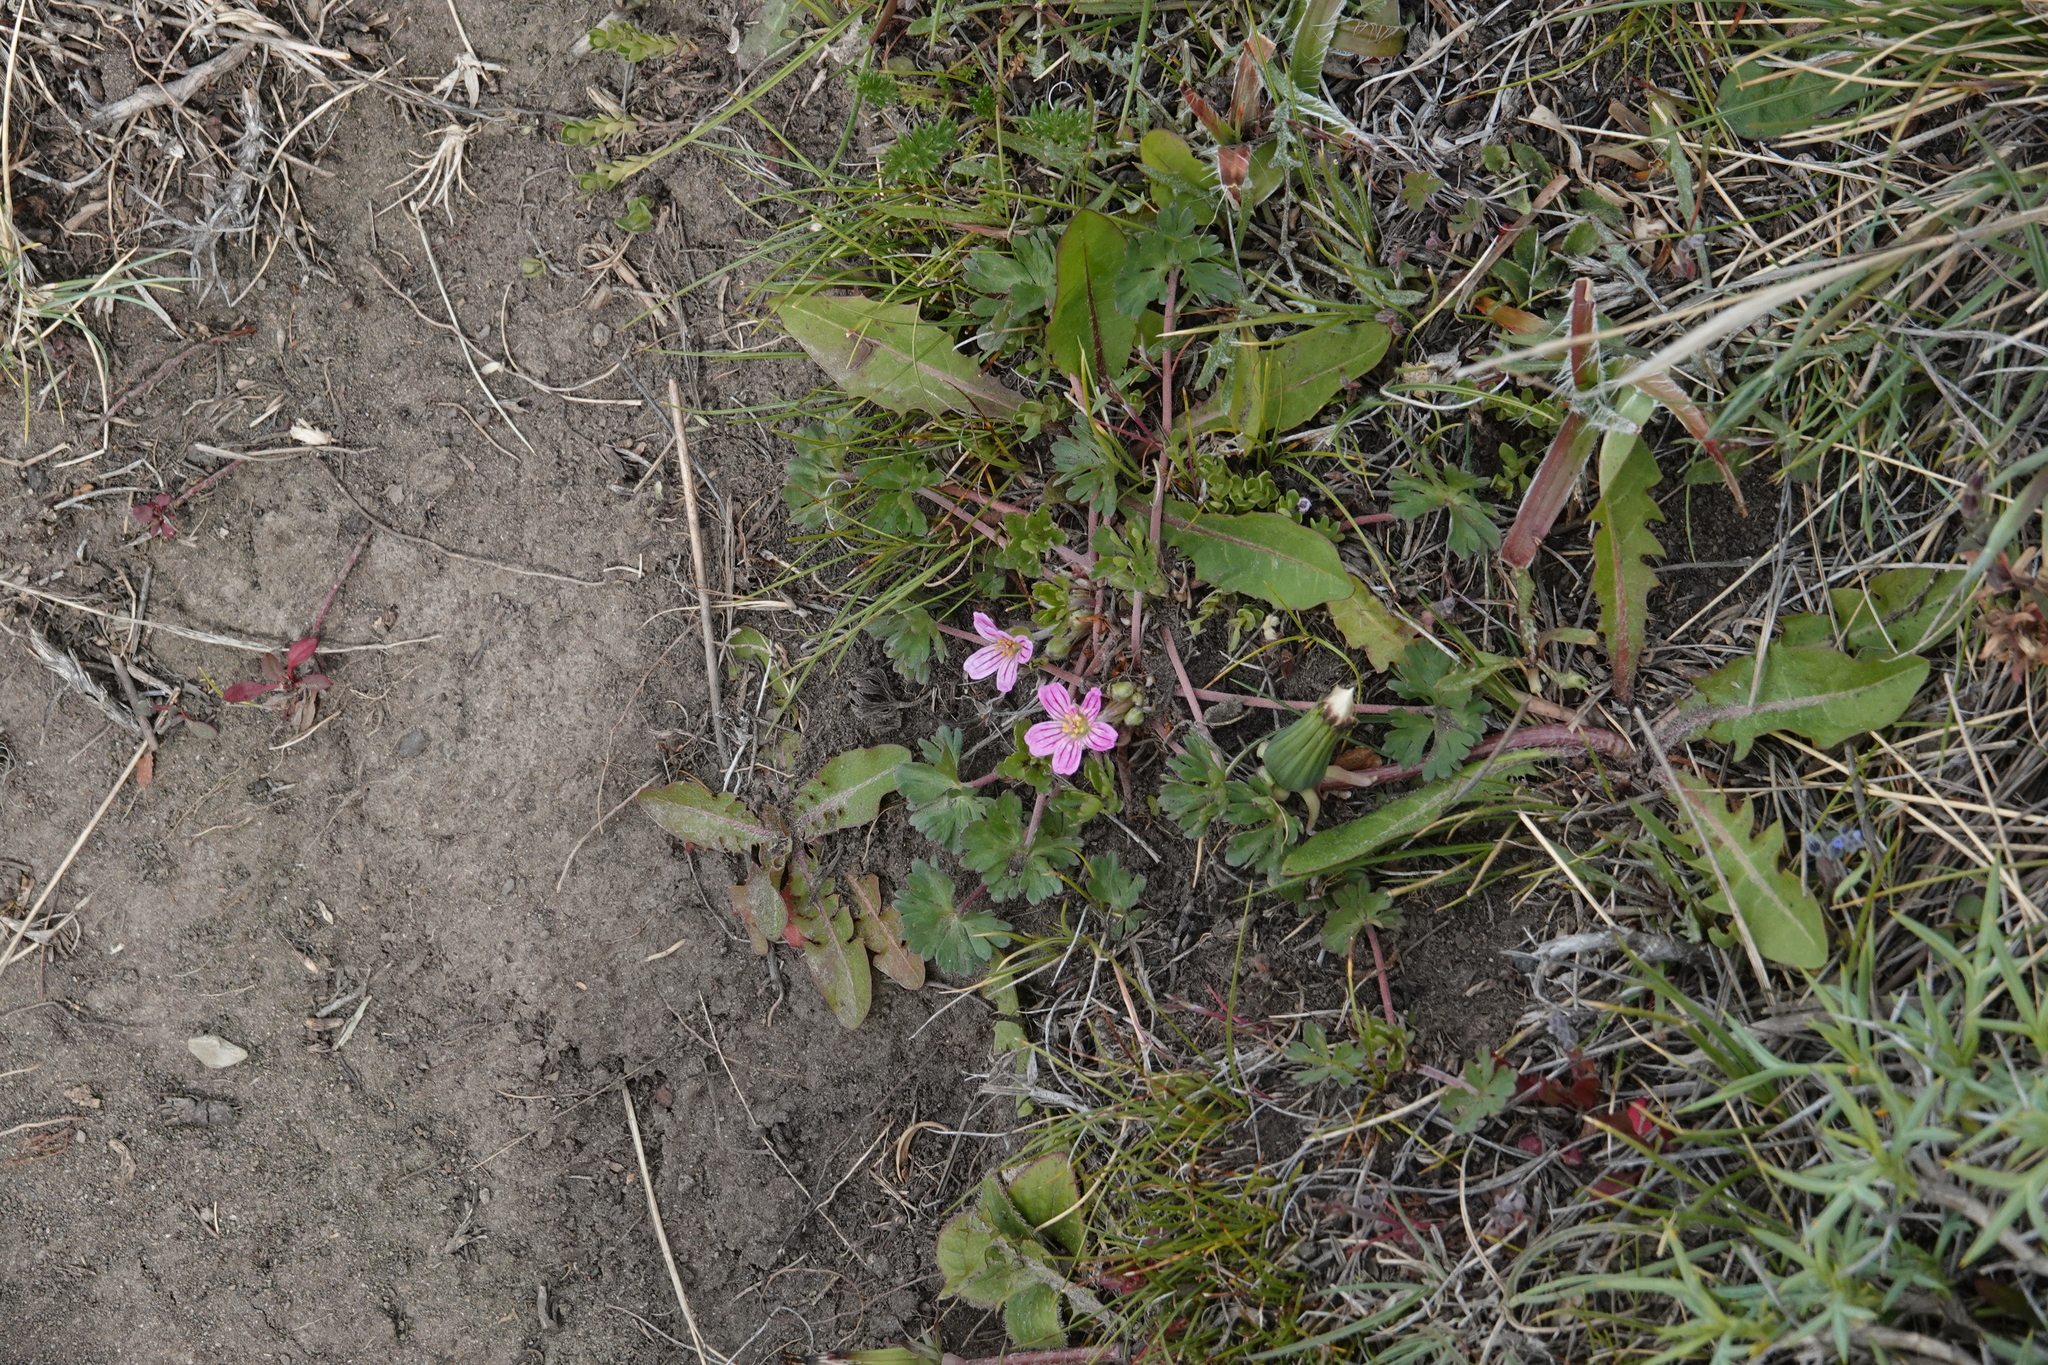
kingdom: Plantae
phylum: Tracheophyta
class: Magnoliopsida
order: Geraniales
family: Geraniaceae
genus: Geranium
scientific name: Geranium sessiliflorum
